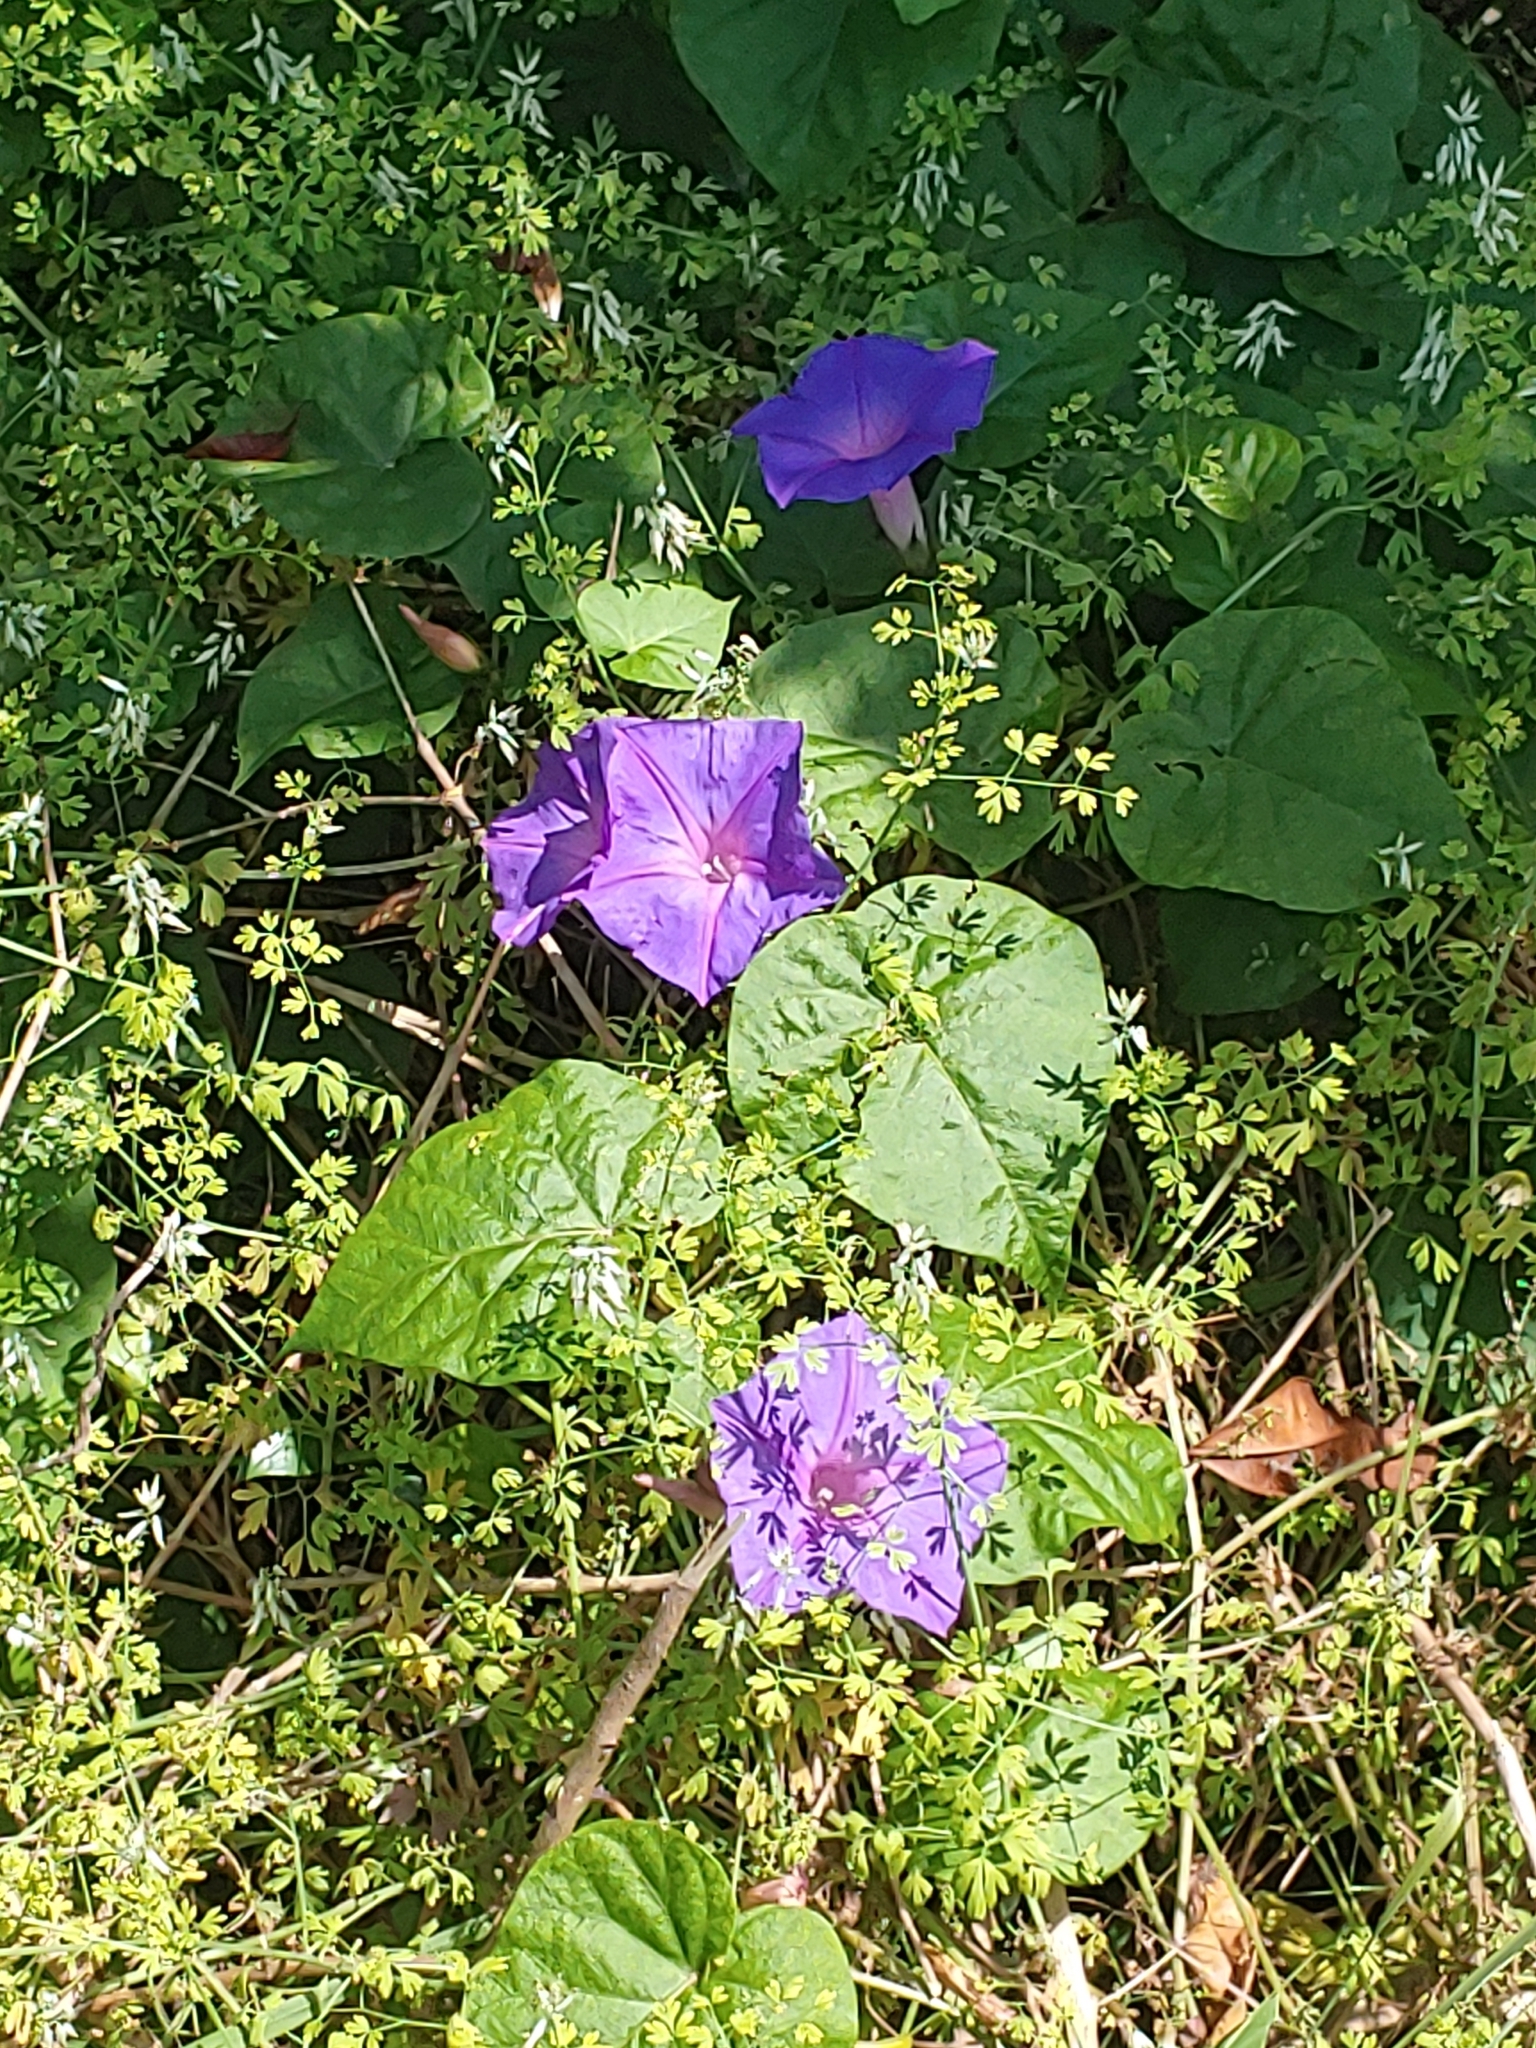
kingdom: Plantae
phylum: Tracheophyta
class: Magnoliopsida
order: Solanales
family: Convolvulaceae
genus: Ipomoea
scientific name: Ipomoea indica
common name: Blue dawnflower
